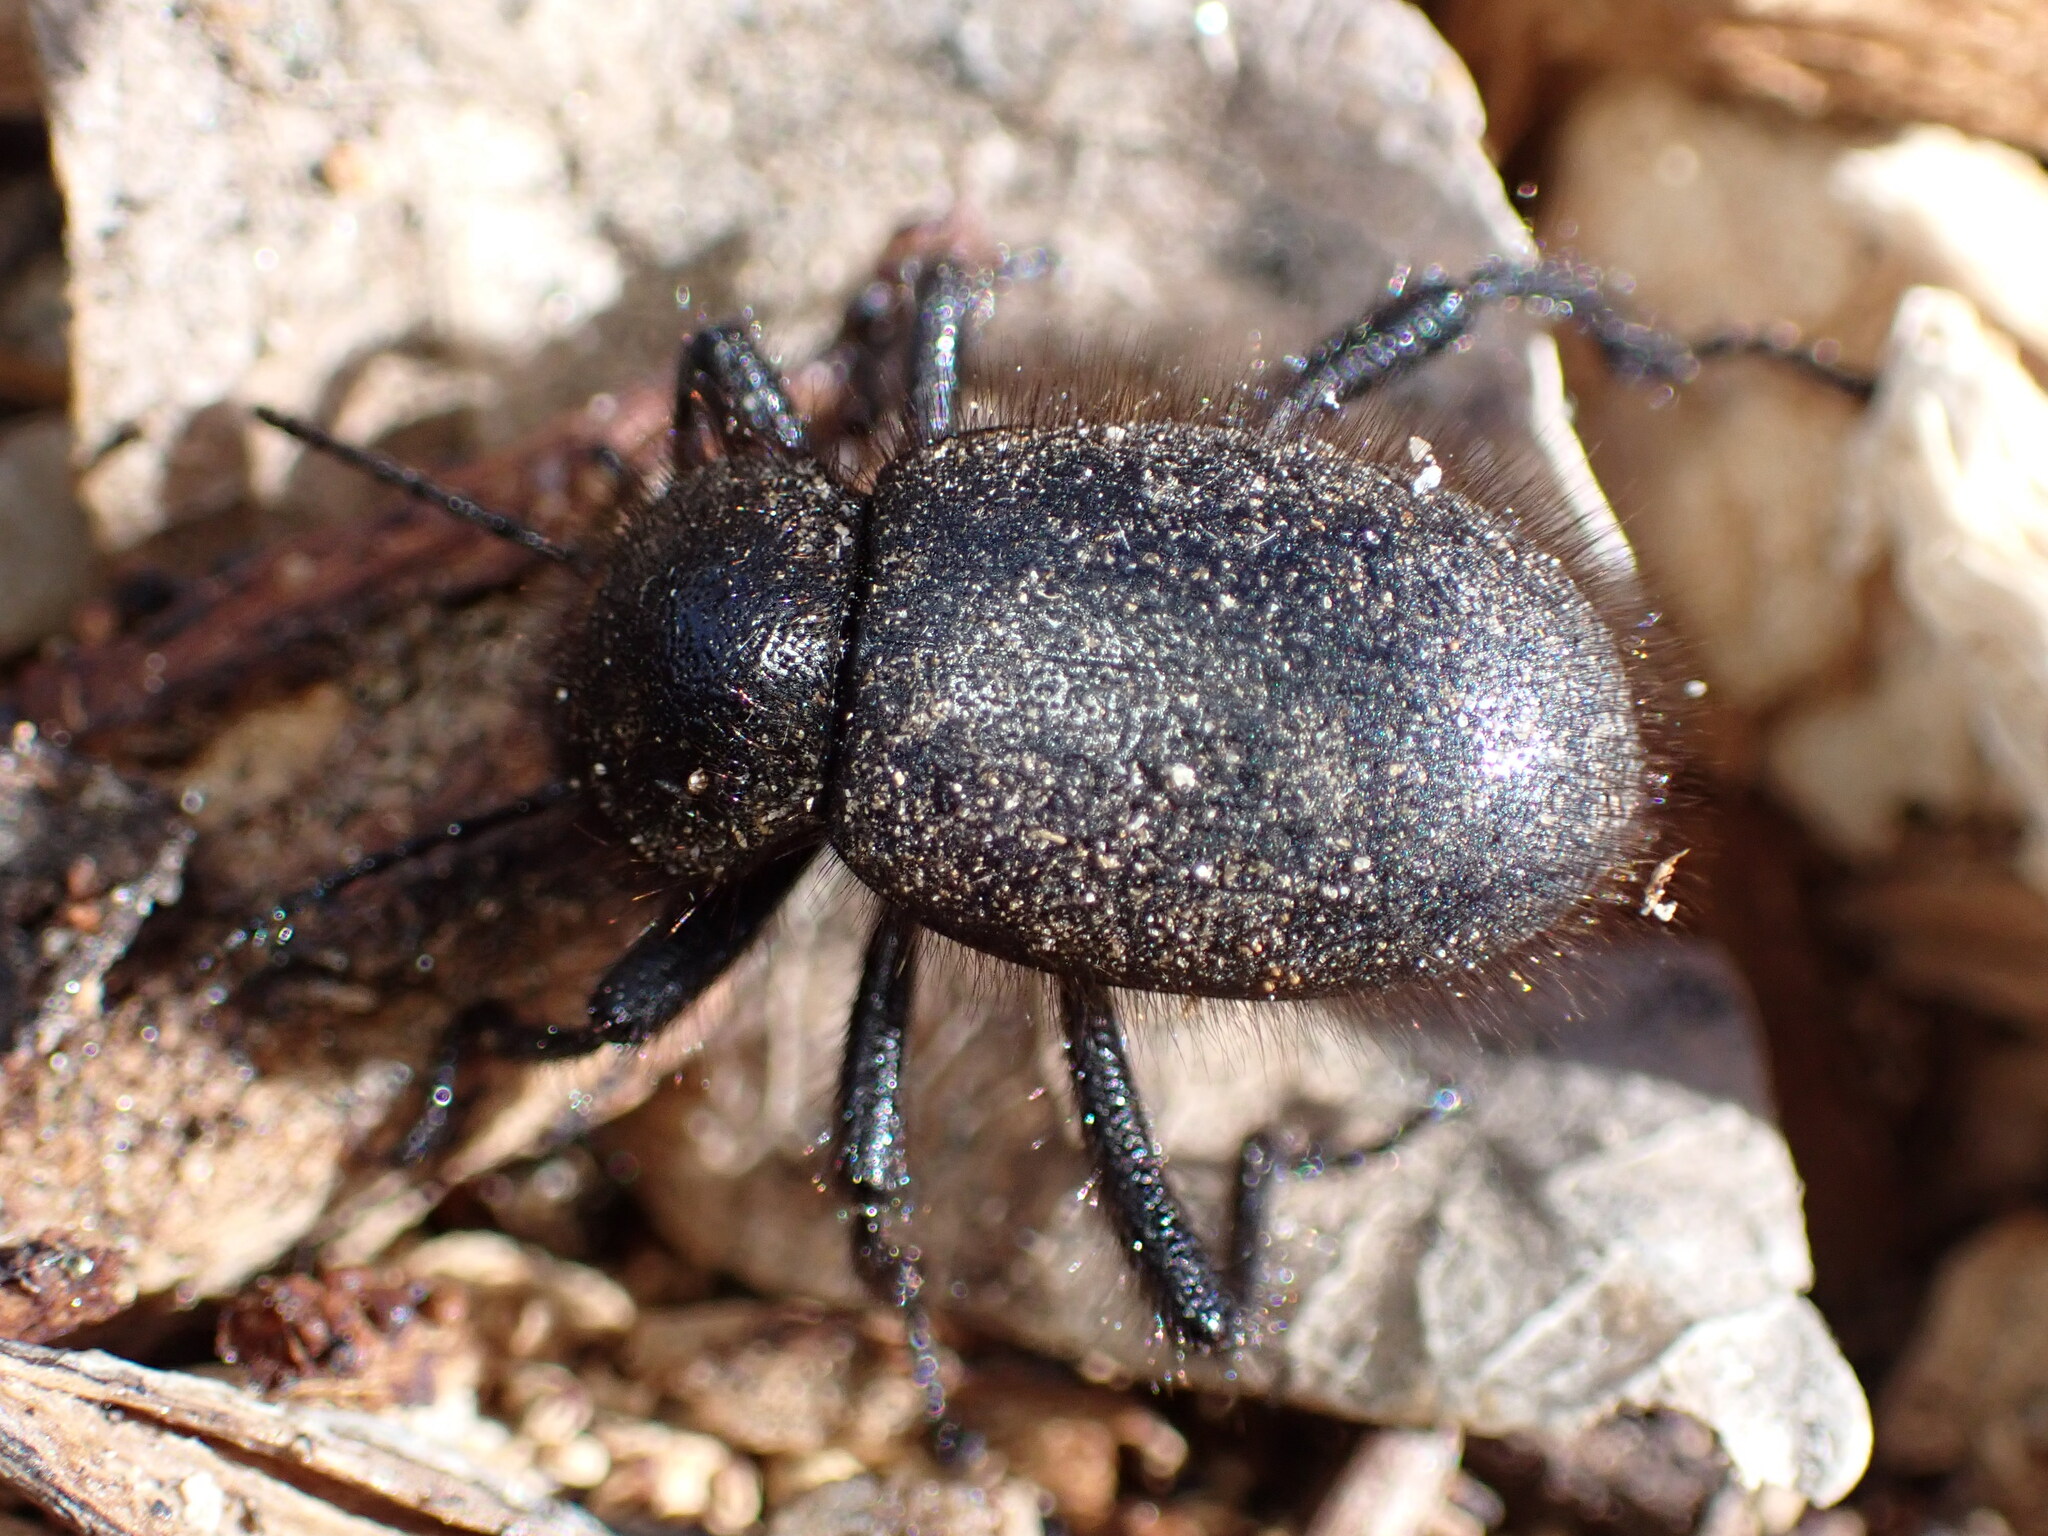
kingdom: Animalia
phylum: Arthropoda
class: Insecta
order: Coleoptera
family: Tenebrionidae
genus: Eleodes
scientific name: Eleodes osculans
